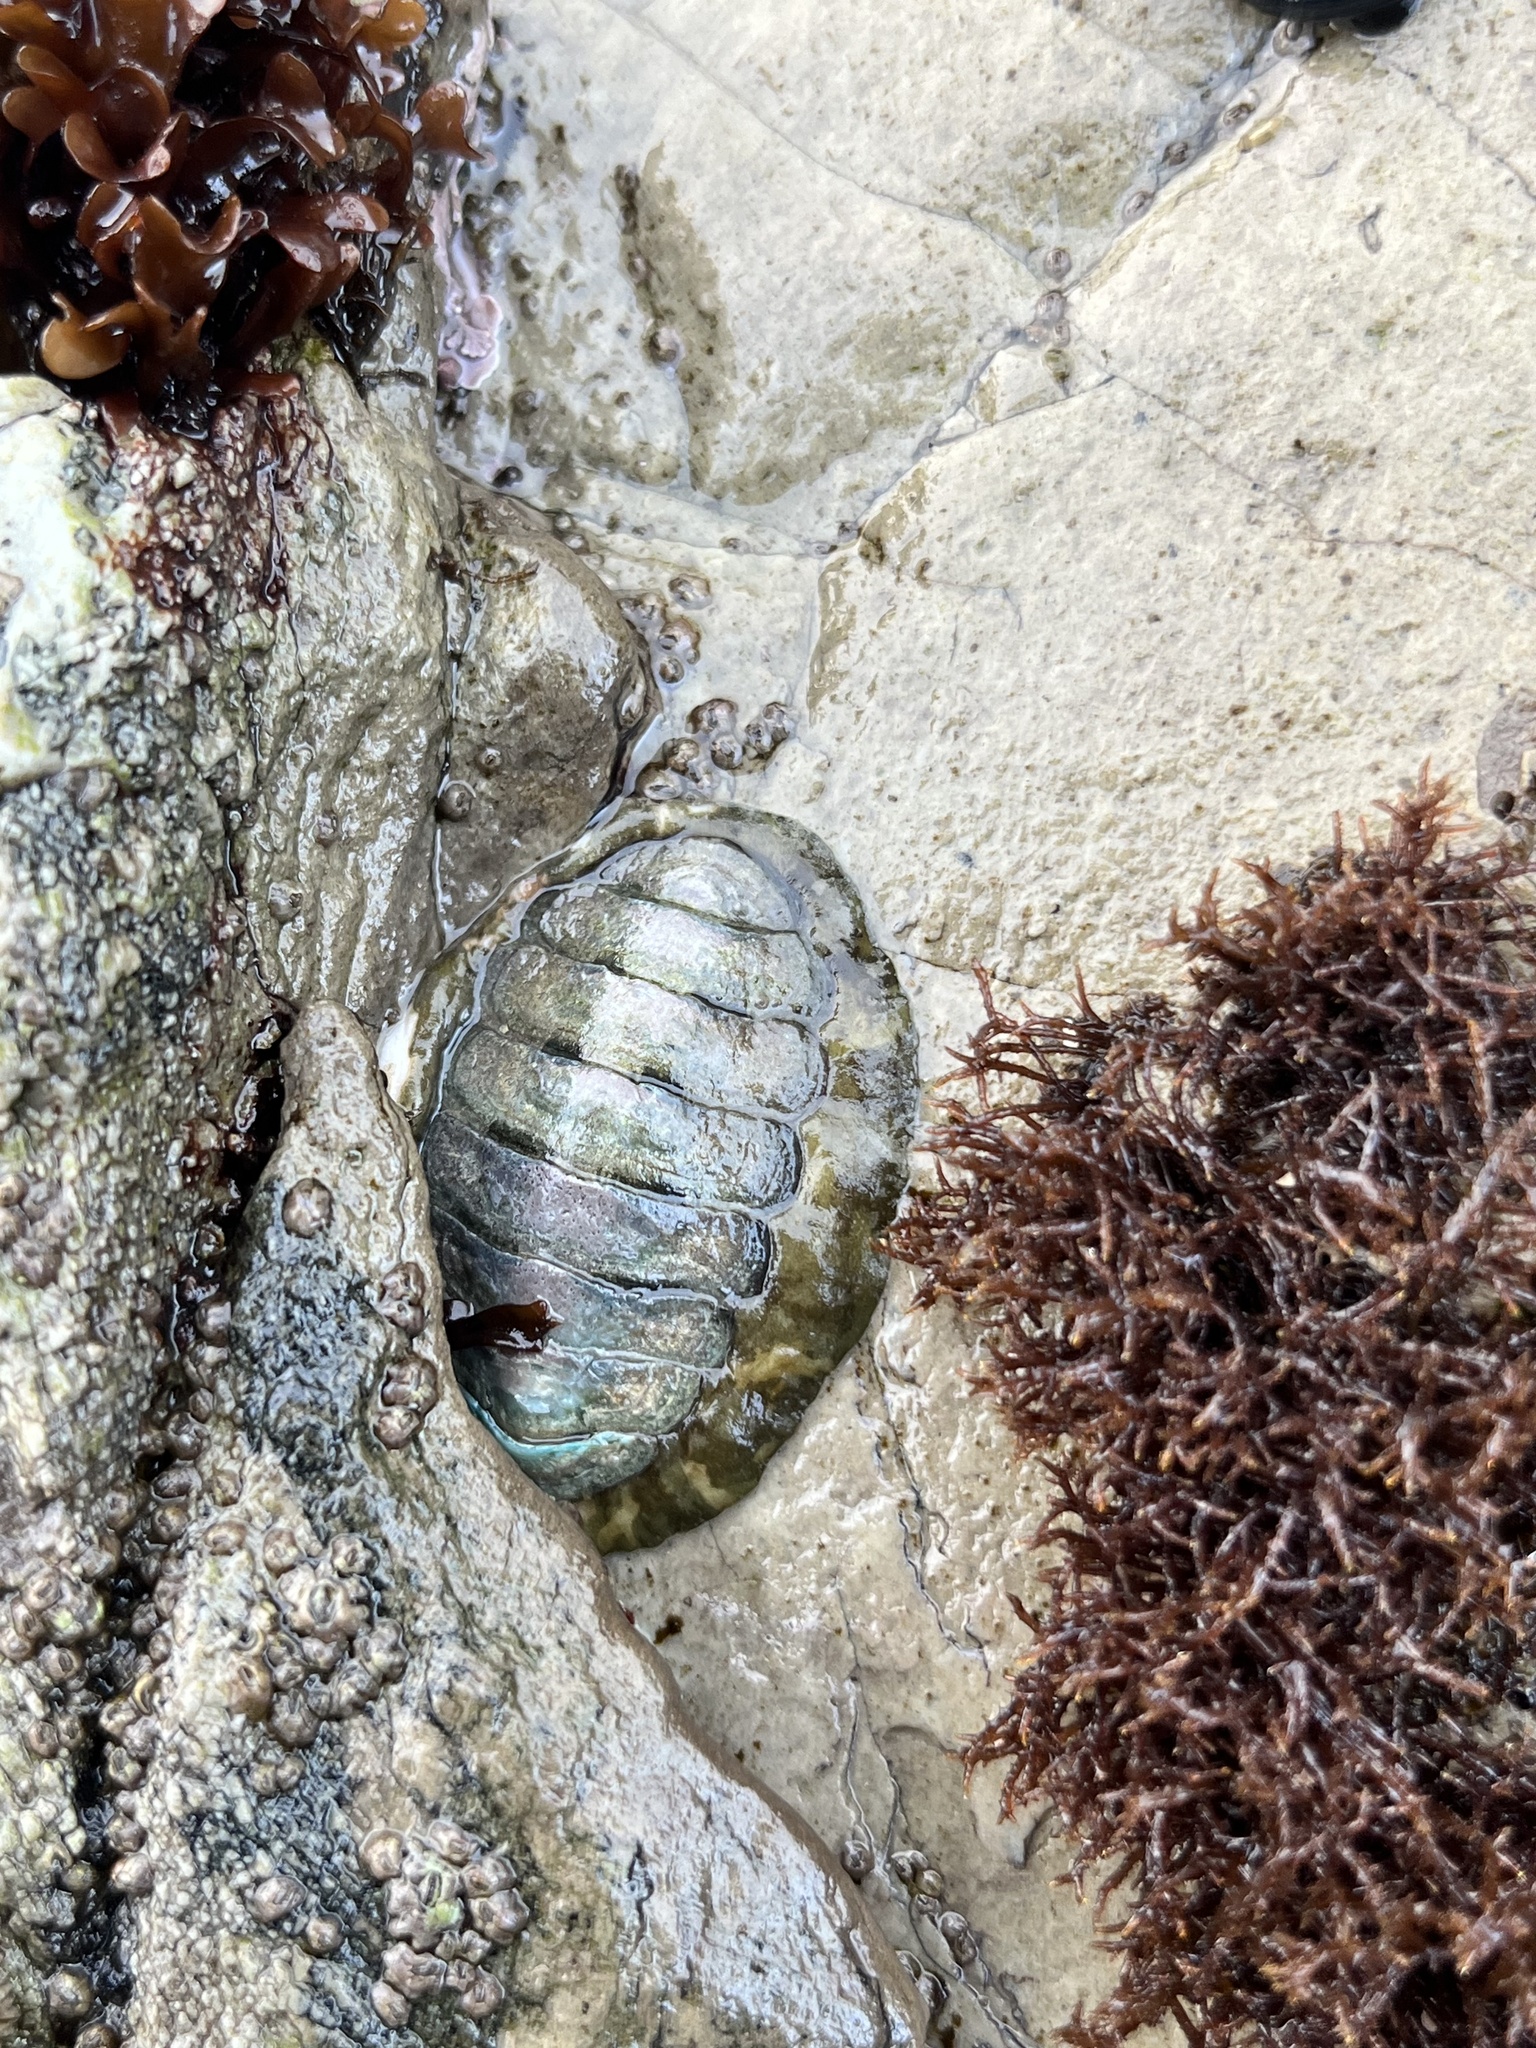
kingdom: Animalia
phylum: Mollusca
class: Polyplacophora
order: Chitonida
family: Tonicellidae
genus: Cyanoplax
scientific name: Cyanoplax hartwegii
